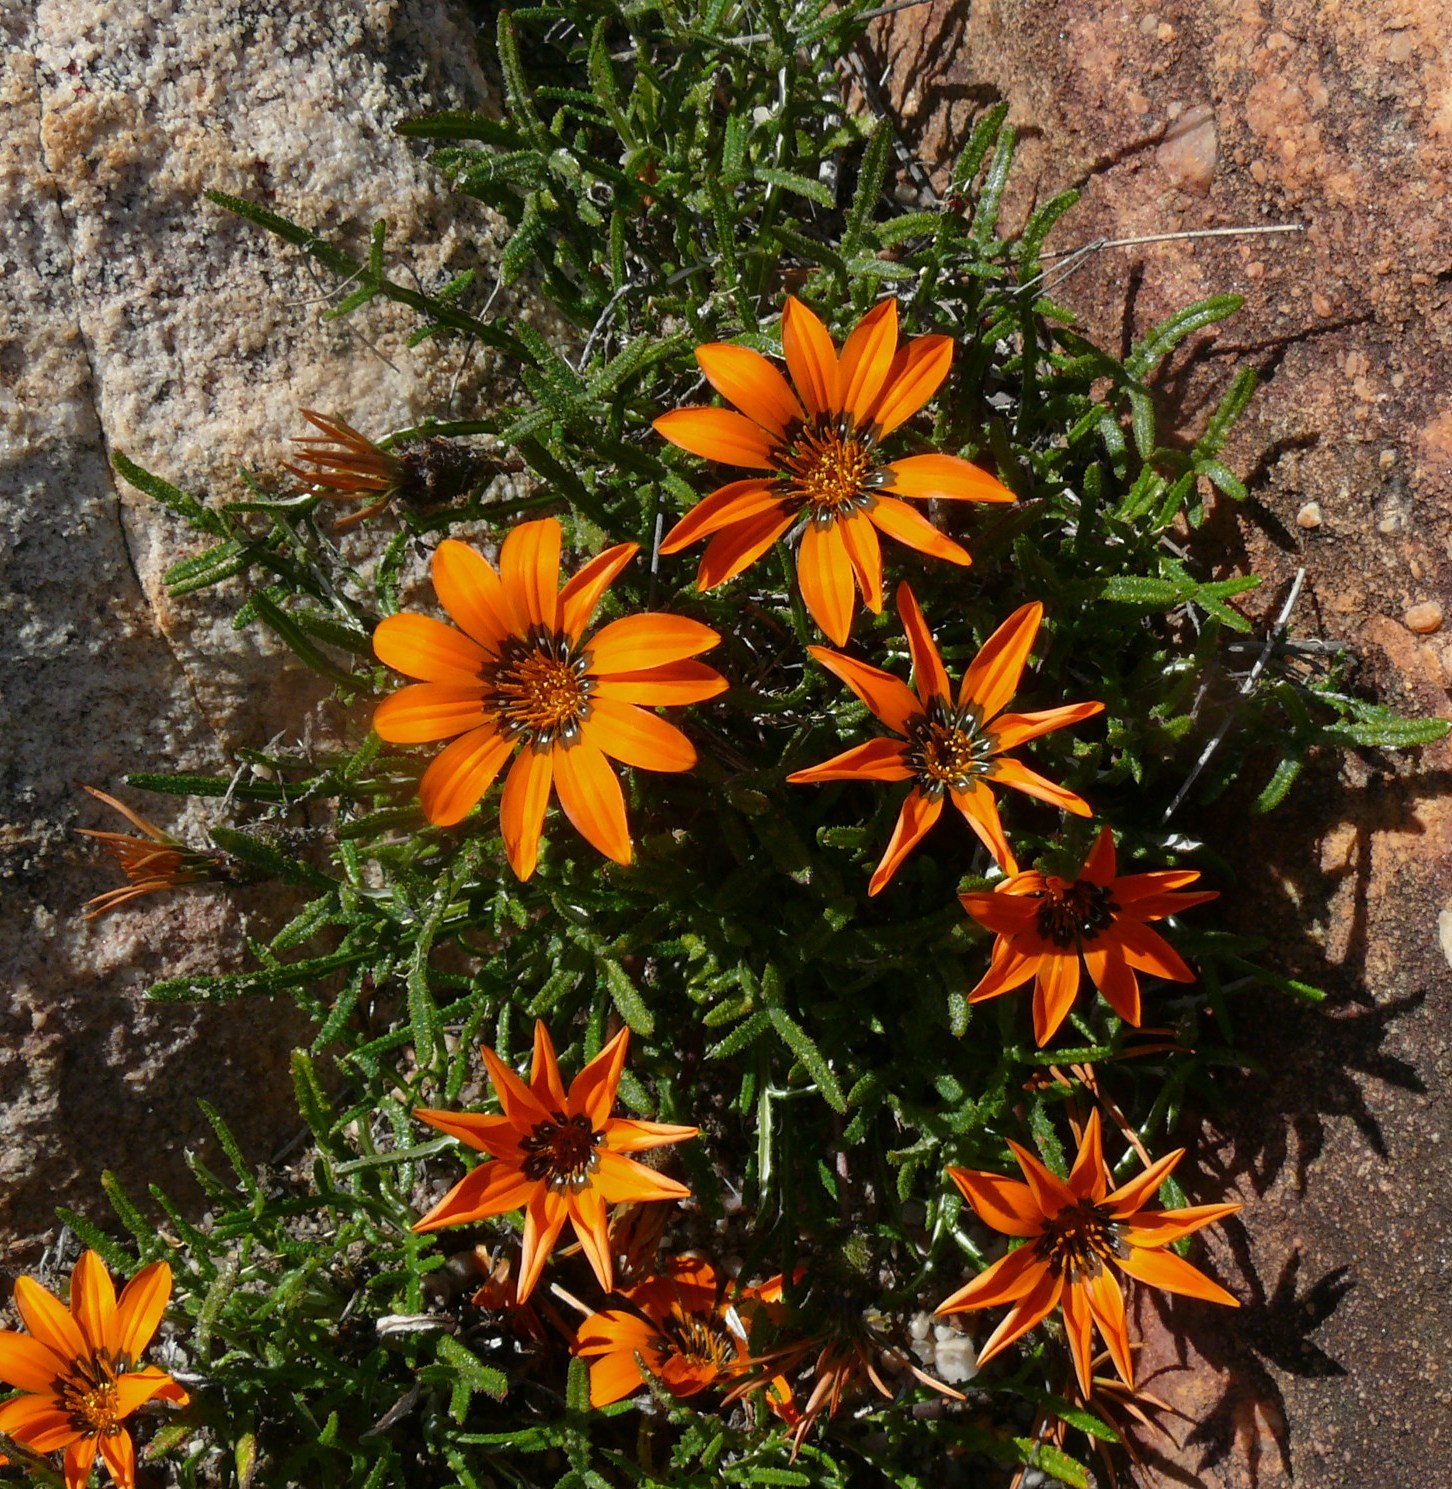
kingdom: Plantae
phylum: Tracheophyta
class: Magnoliopsida
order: Asterales
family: Asteraceae
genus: Gazania
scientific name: Gazania serrata
